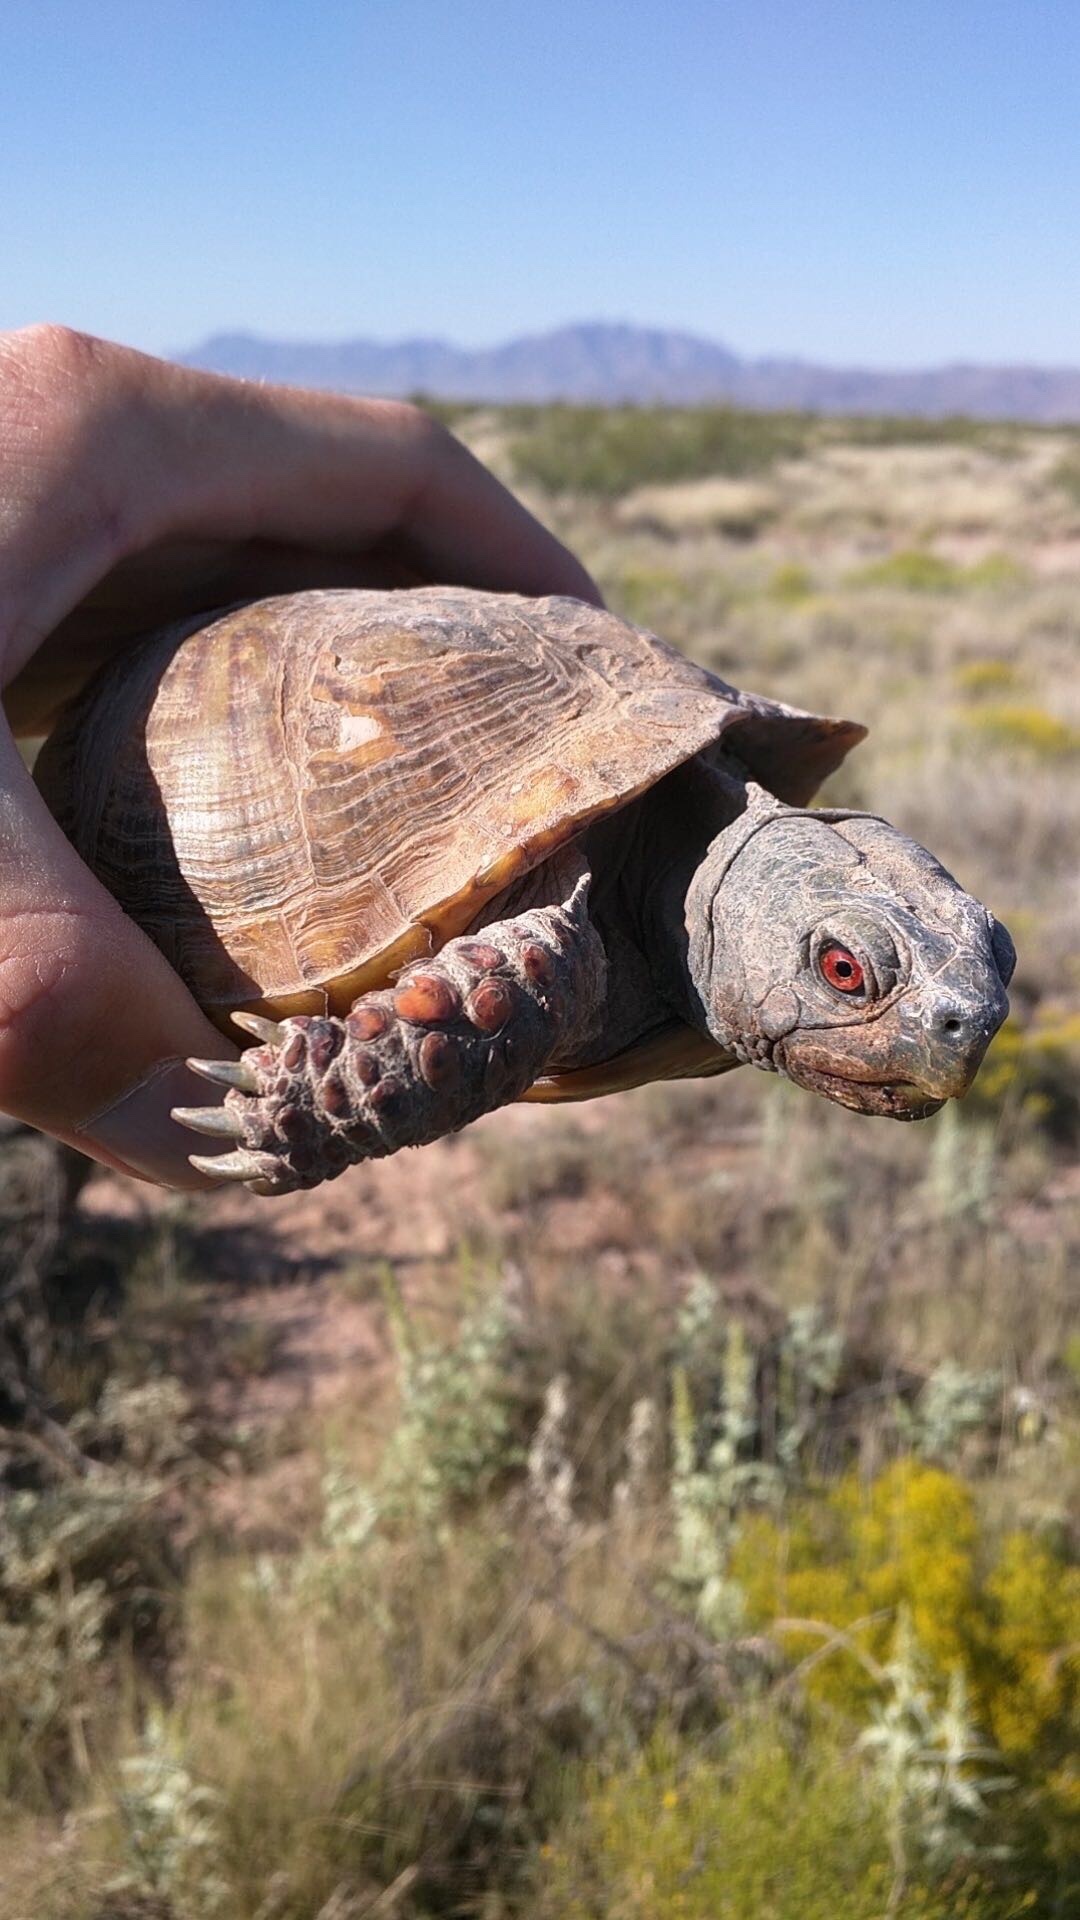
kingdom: Animalia
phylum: Chordata
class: Testudines
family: Emydidae
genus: Terrapene
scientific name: Terrapene ornata
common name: Western box turtle
